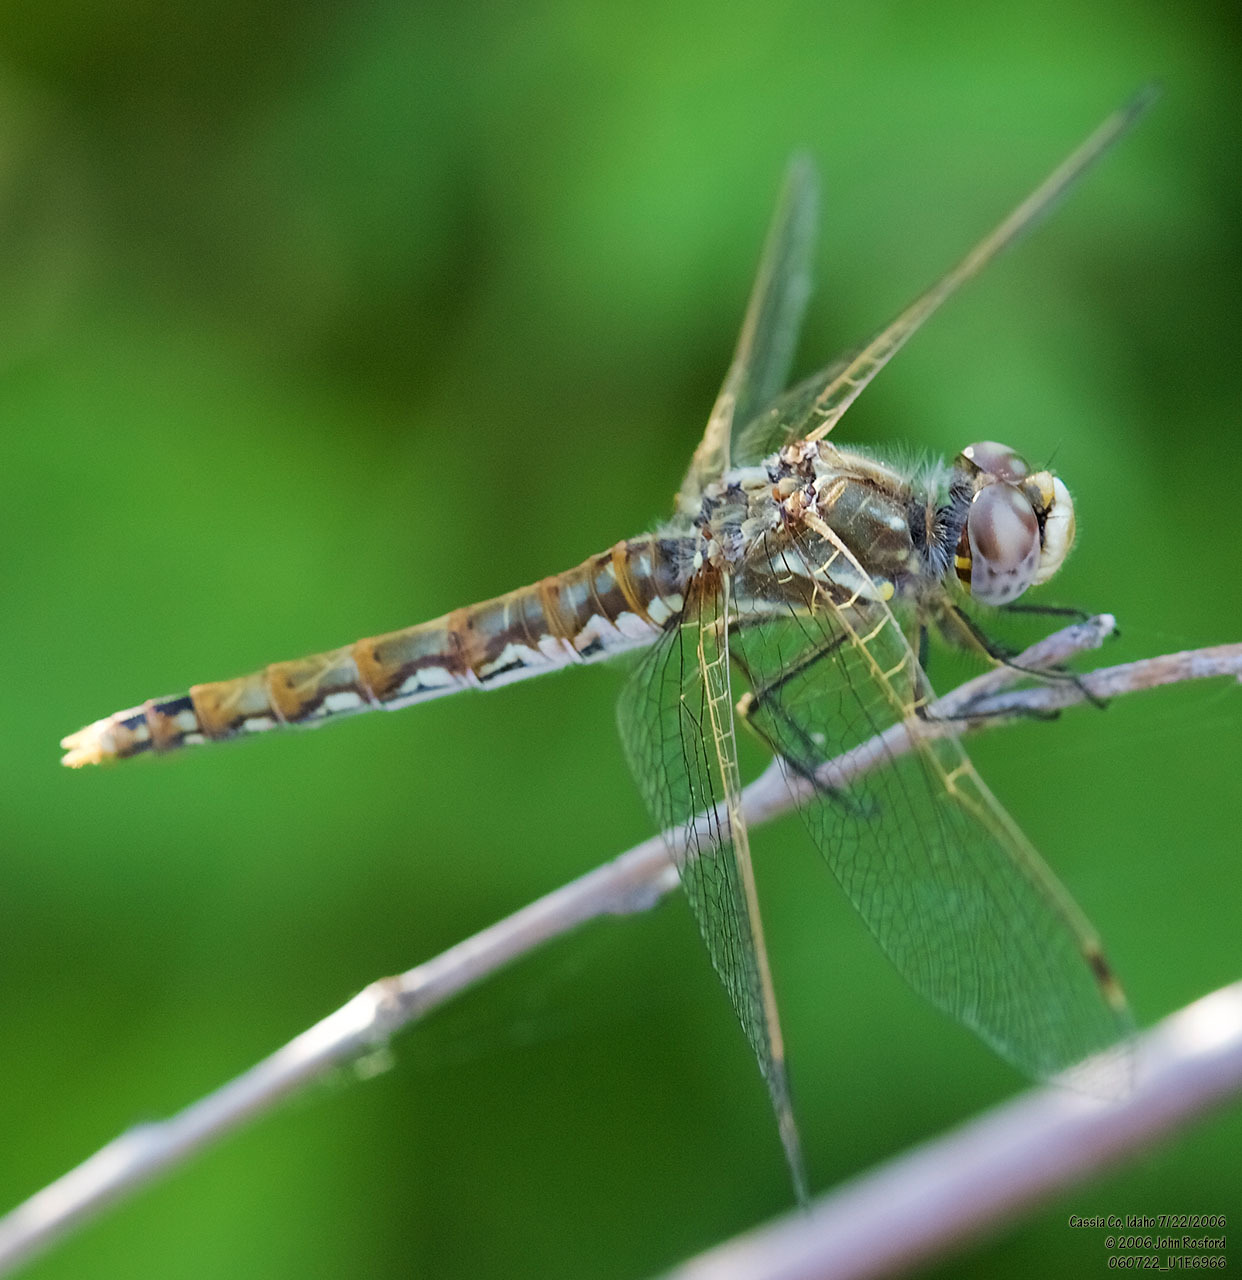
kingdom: Animalia
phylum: Arthropoda
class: Insecta
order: Odonata
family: Libellulidae
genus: Sympetrum
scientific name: Sympetrum corruptum
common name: Variegated meadowhawk
